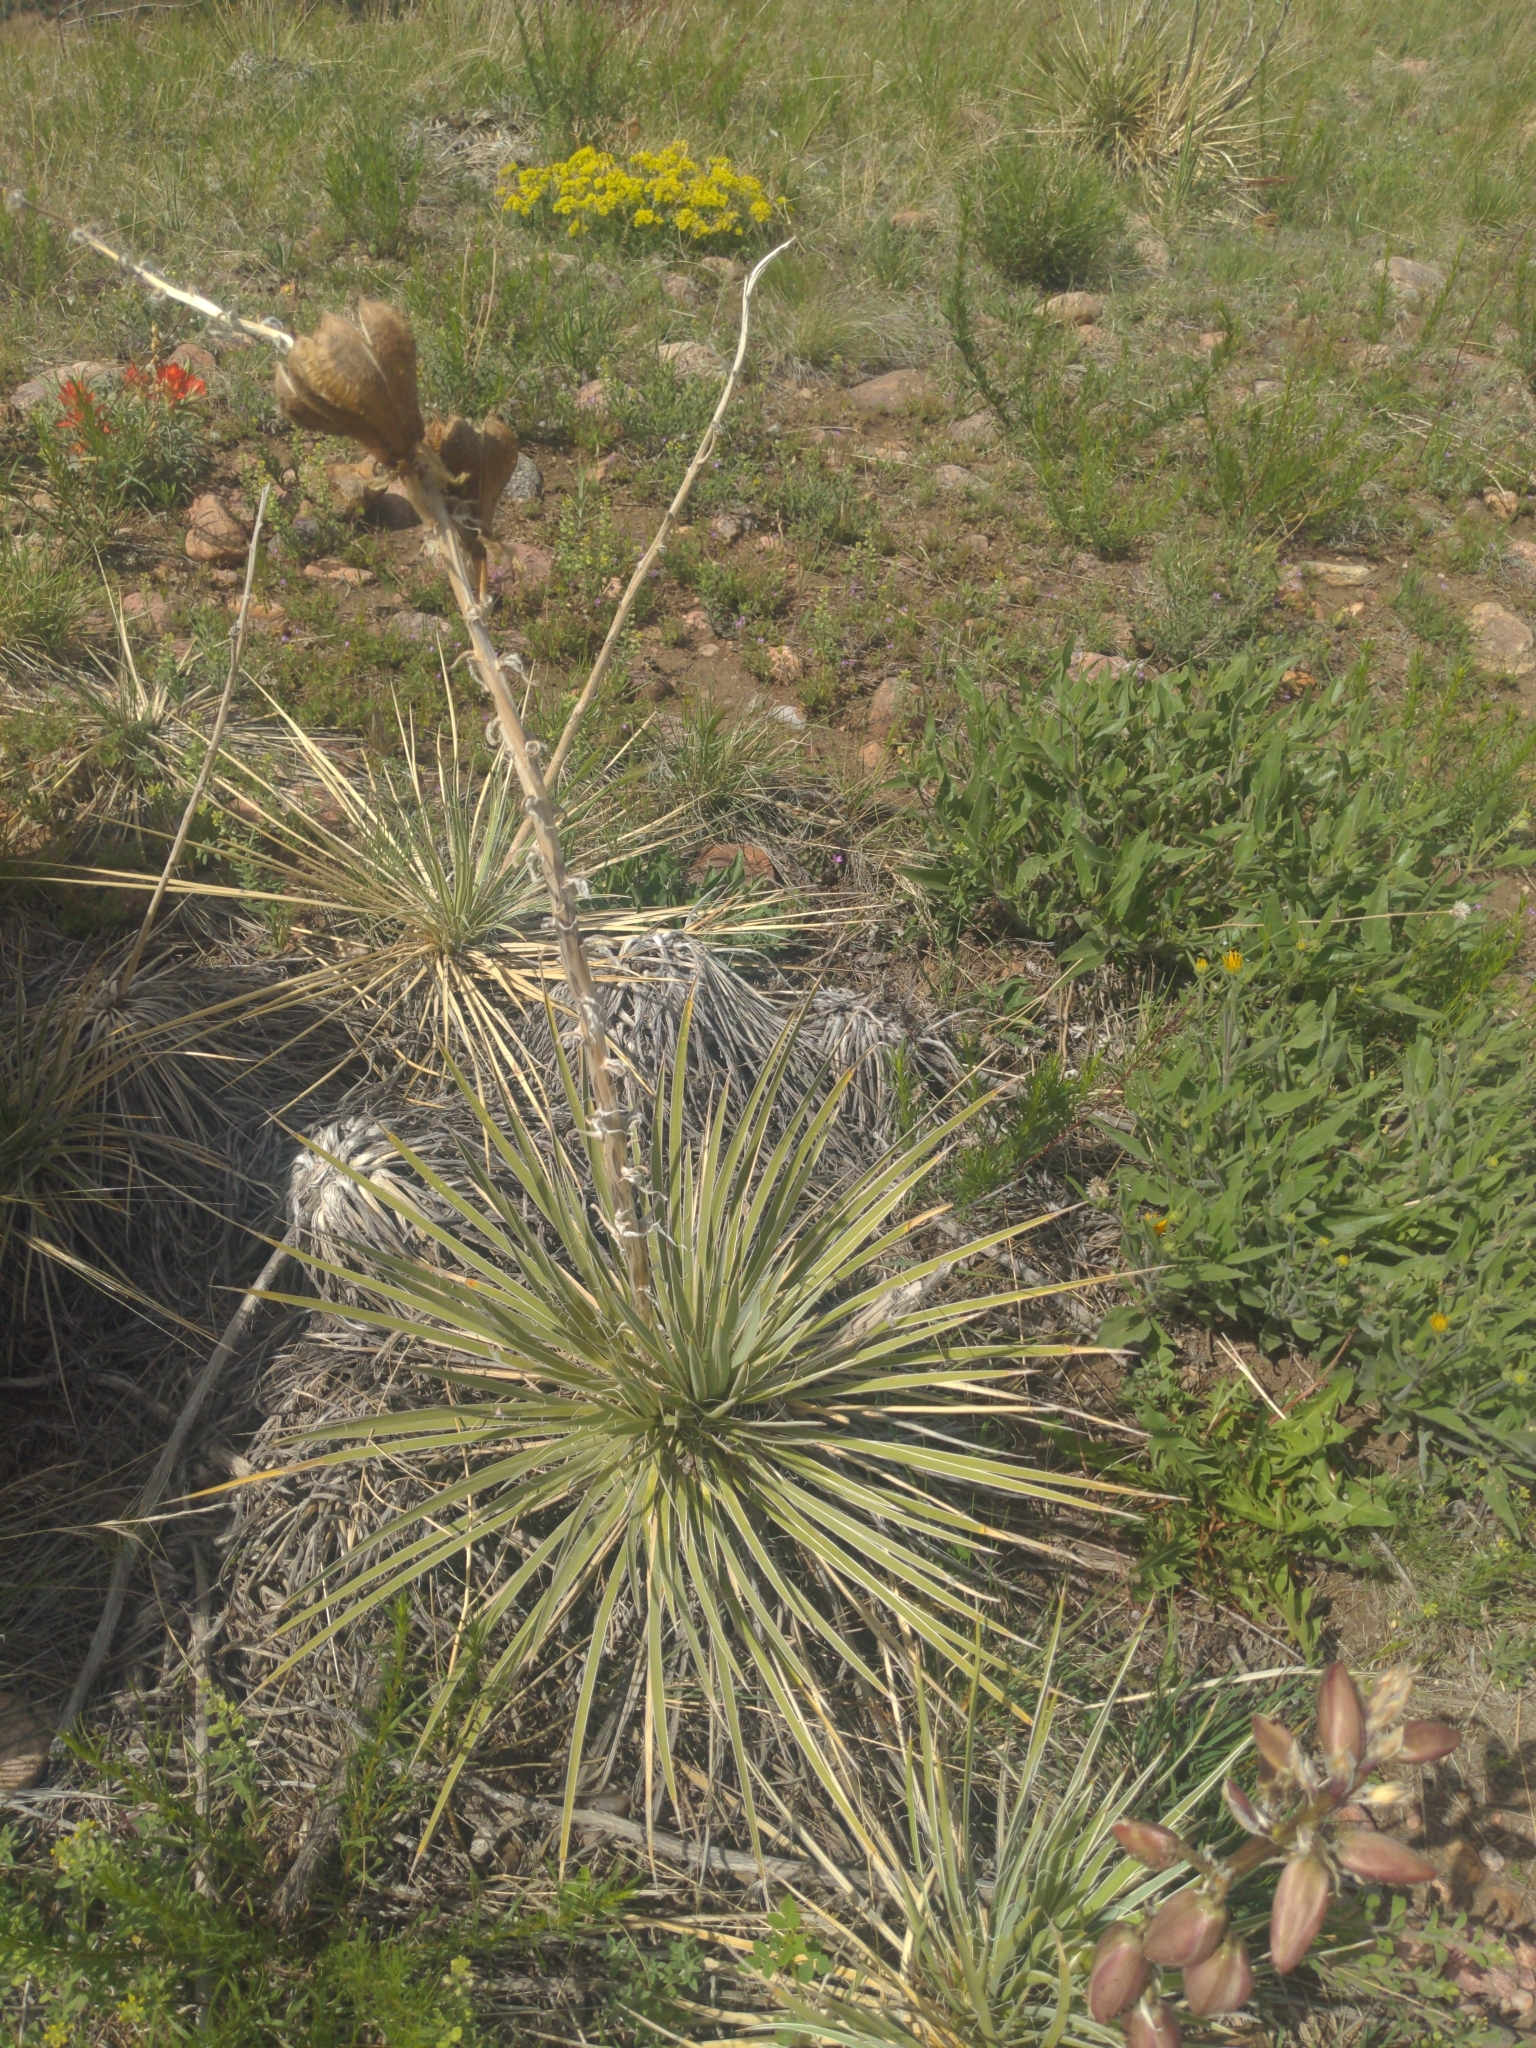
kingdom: Plantae
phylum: Tracheophyta
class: Liliopsida
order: Asparagales
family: Asparagaceae
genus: Yucca
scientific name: Yucca glauca
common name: Great plains yucca
